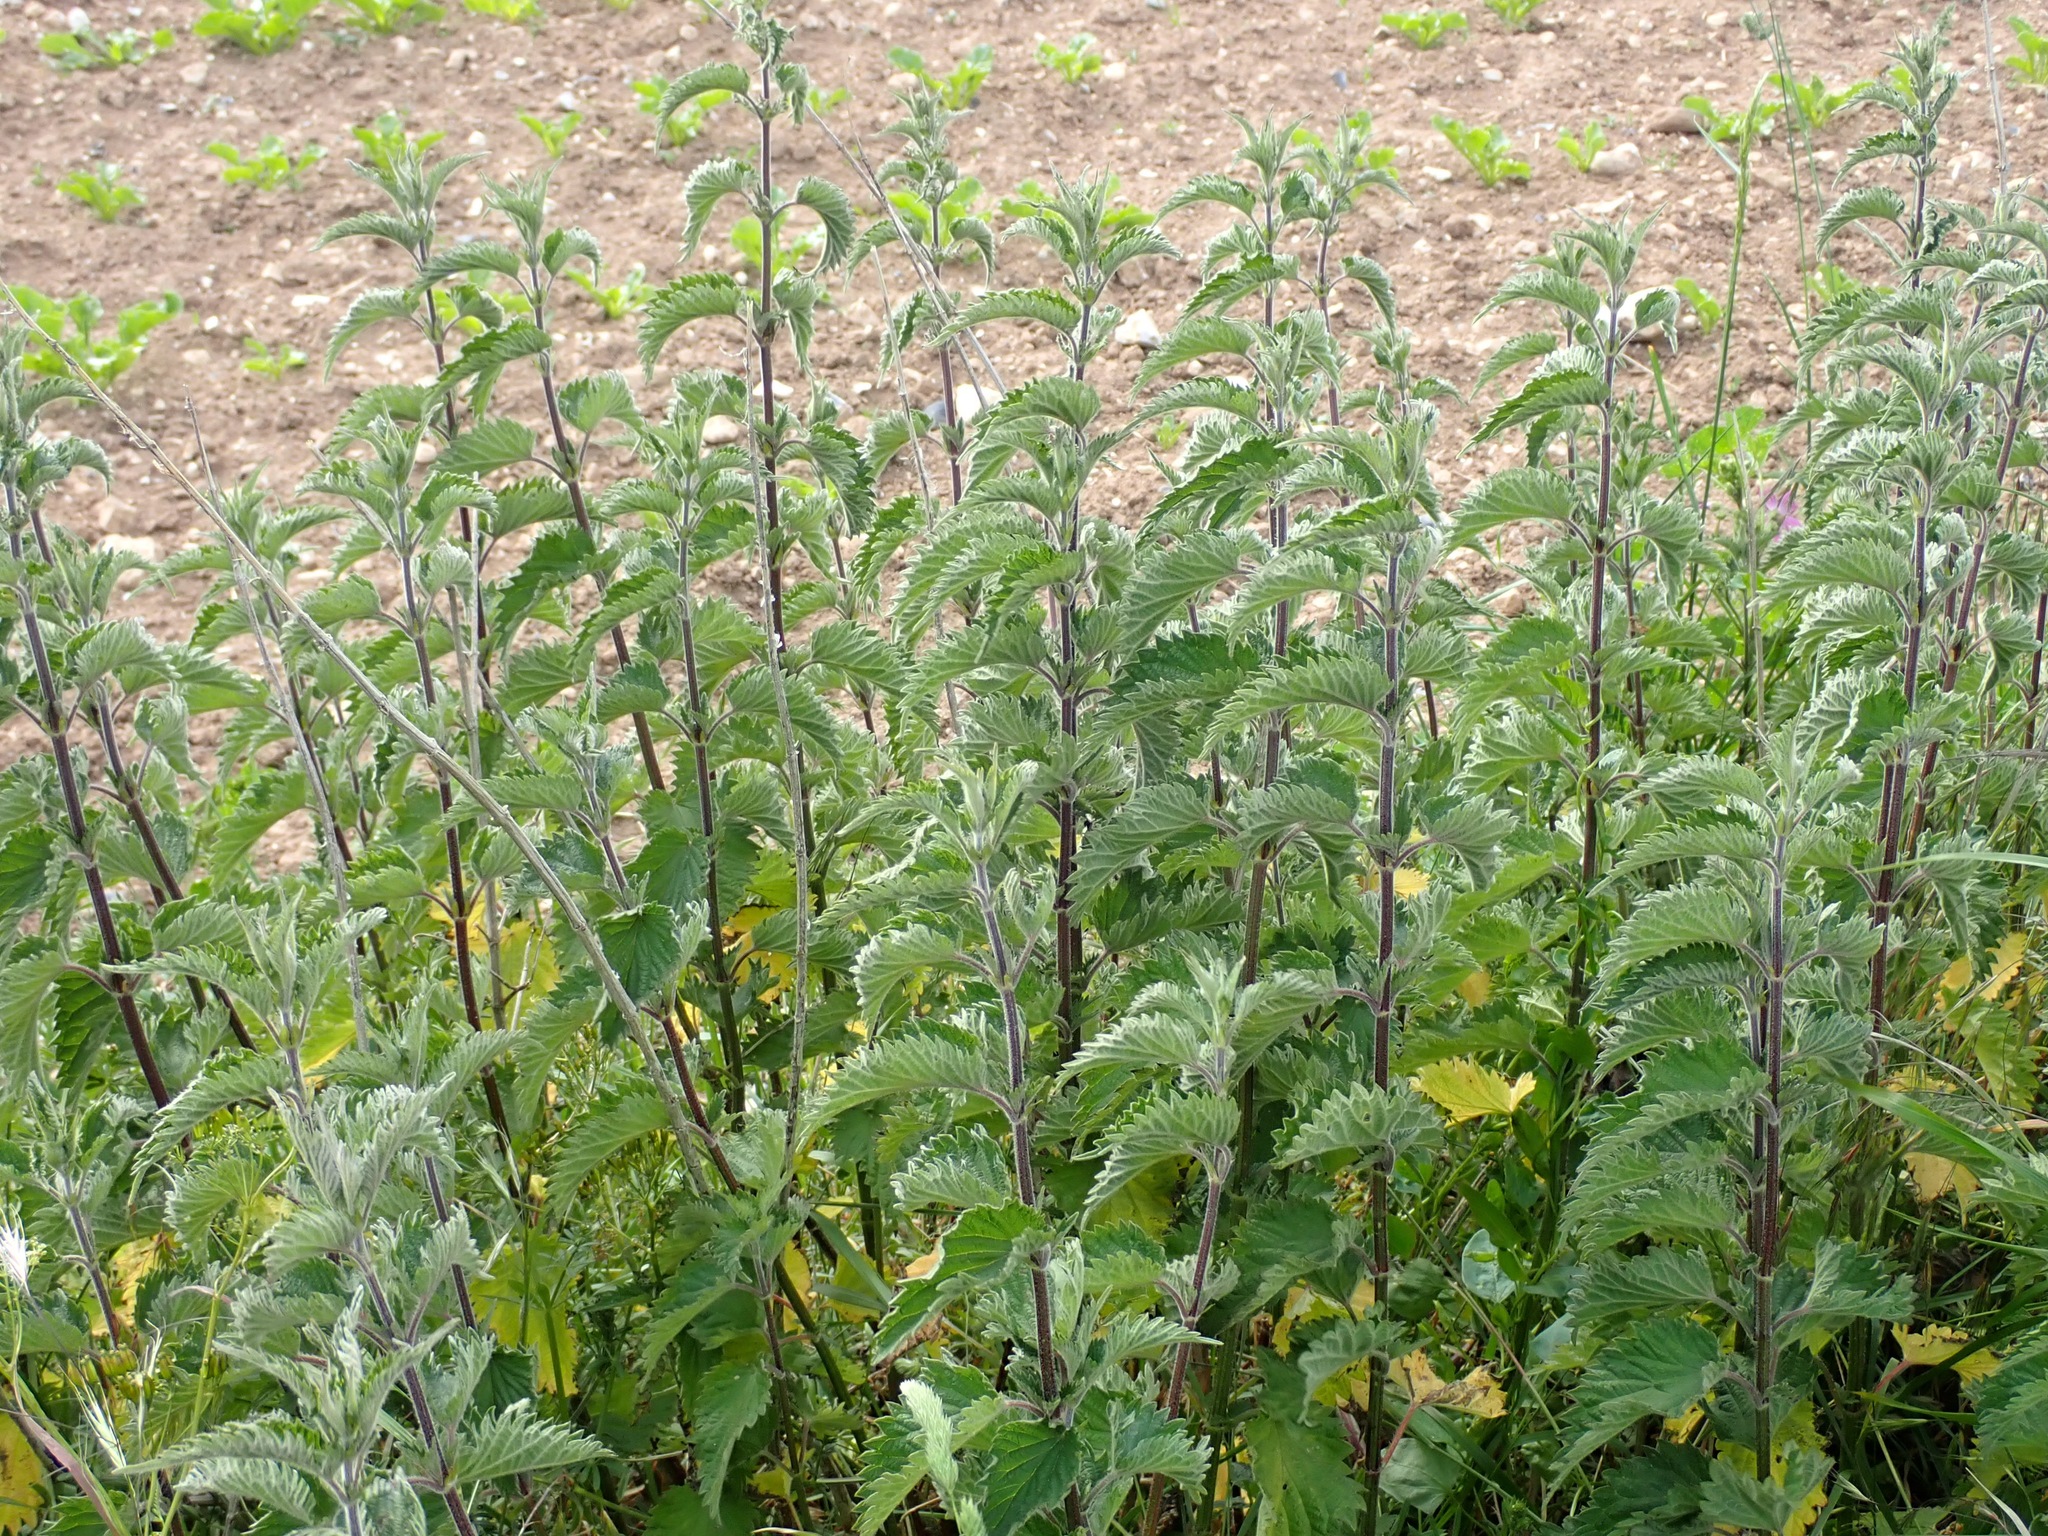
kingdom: Plantae
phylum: Tracheophyta
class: Magnoliopsida
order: Rosales
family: Urticaceae
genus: Urtica
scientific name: Urtica dioica
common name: Common nettle
